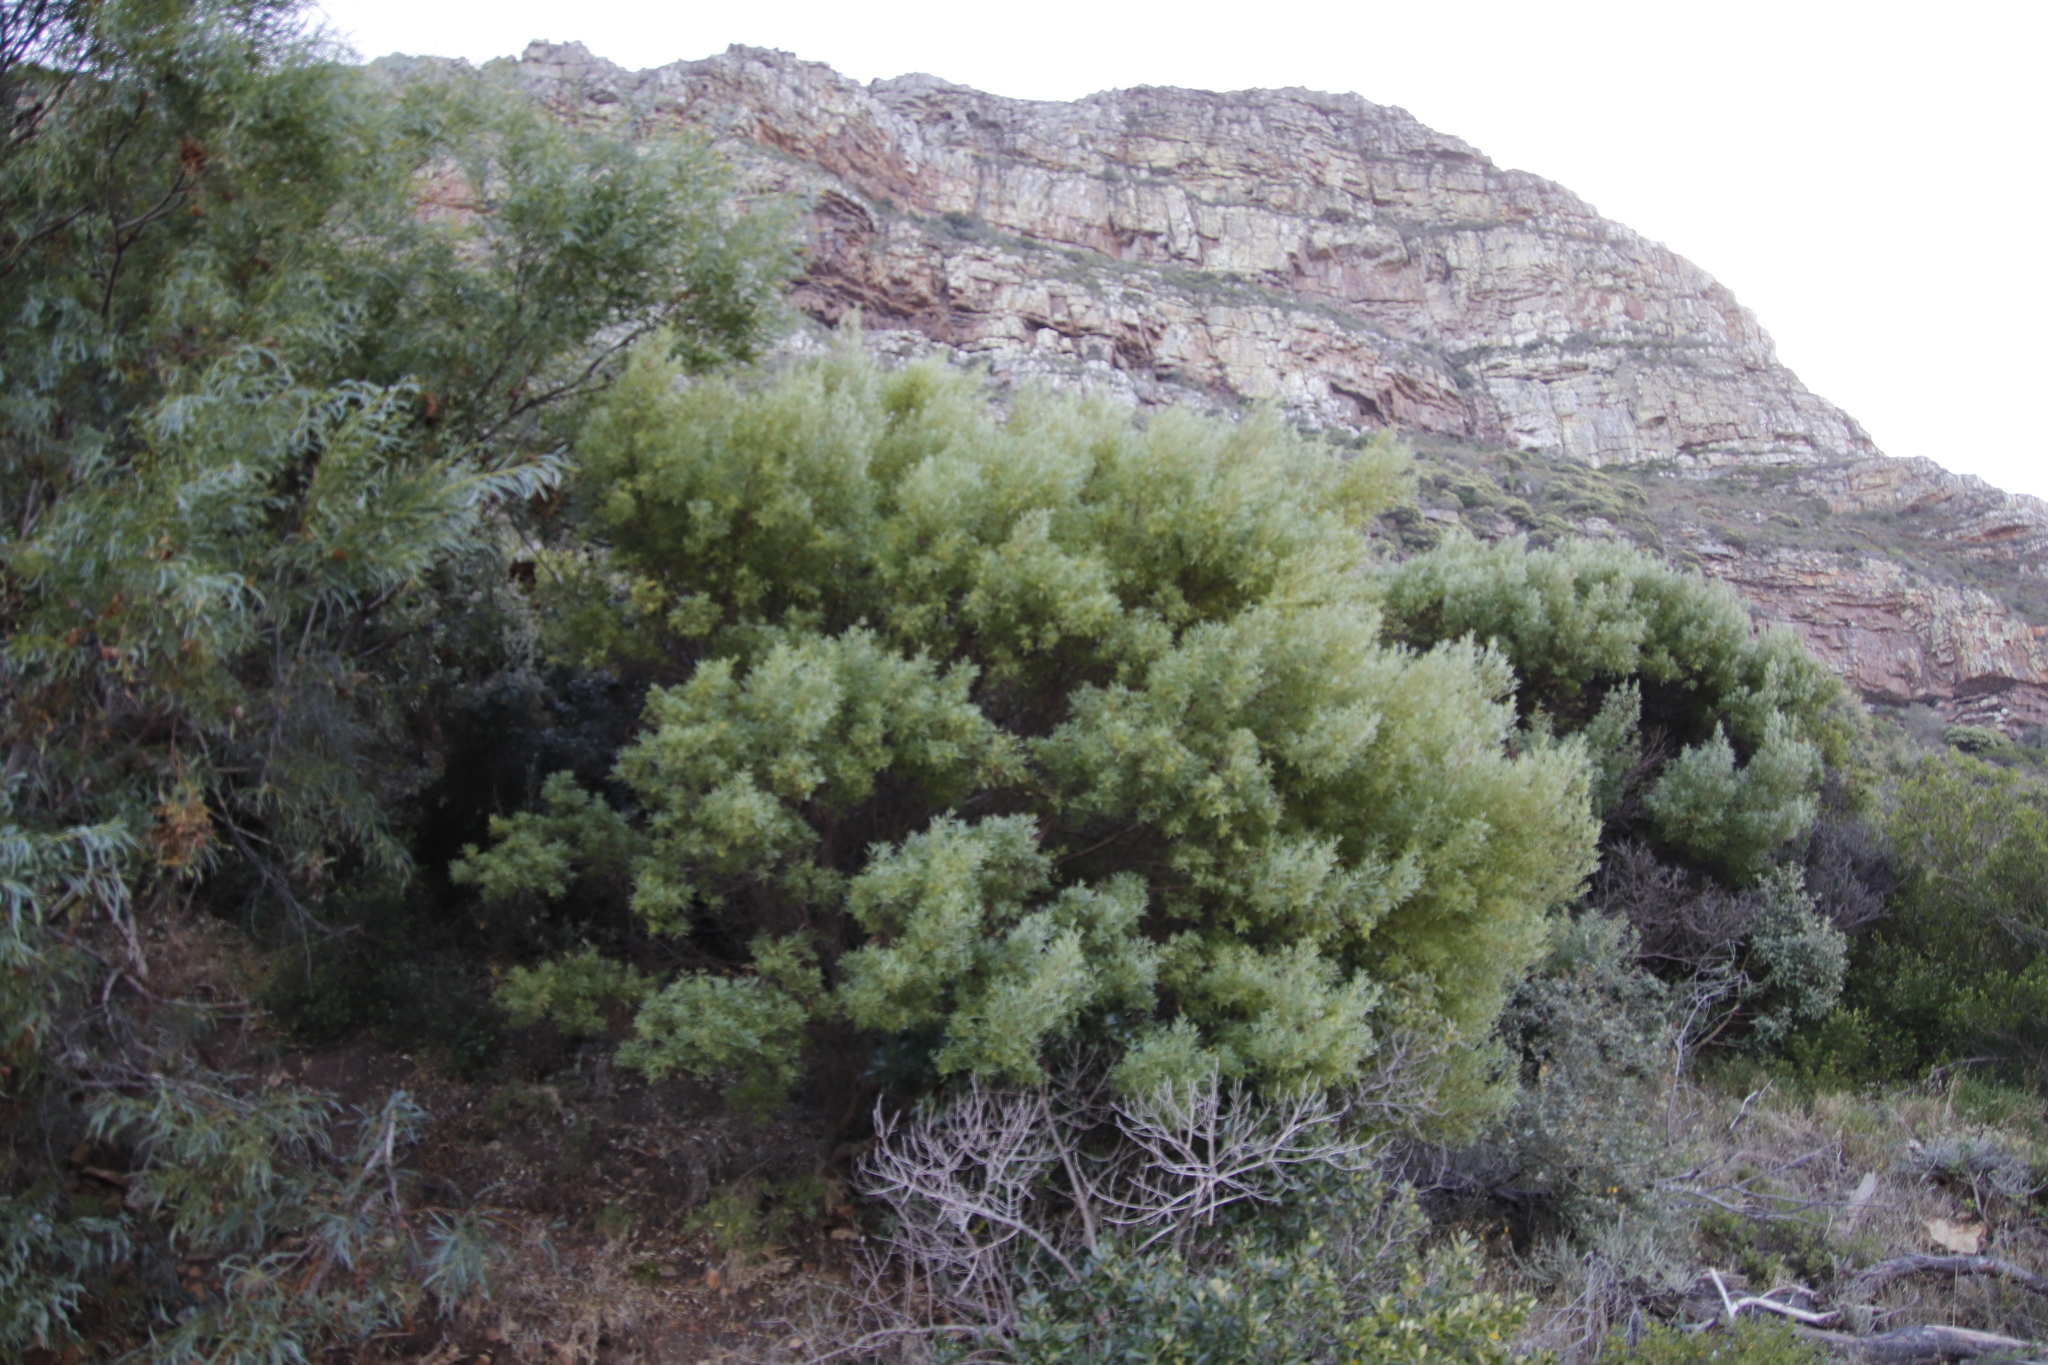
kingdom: Plantae
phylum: Tracheophyta
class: Magnoliopsida
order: Fabales
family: Fabaceae
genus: Acacia
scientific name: Acacia cyclops
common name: Coastal wattle
